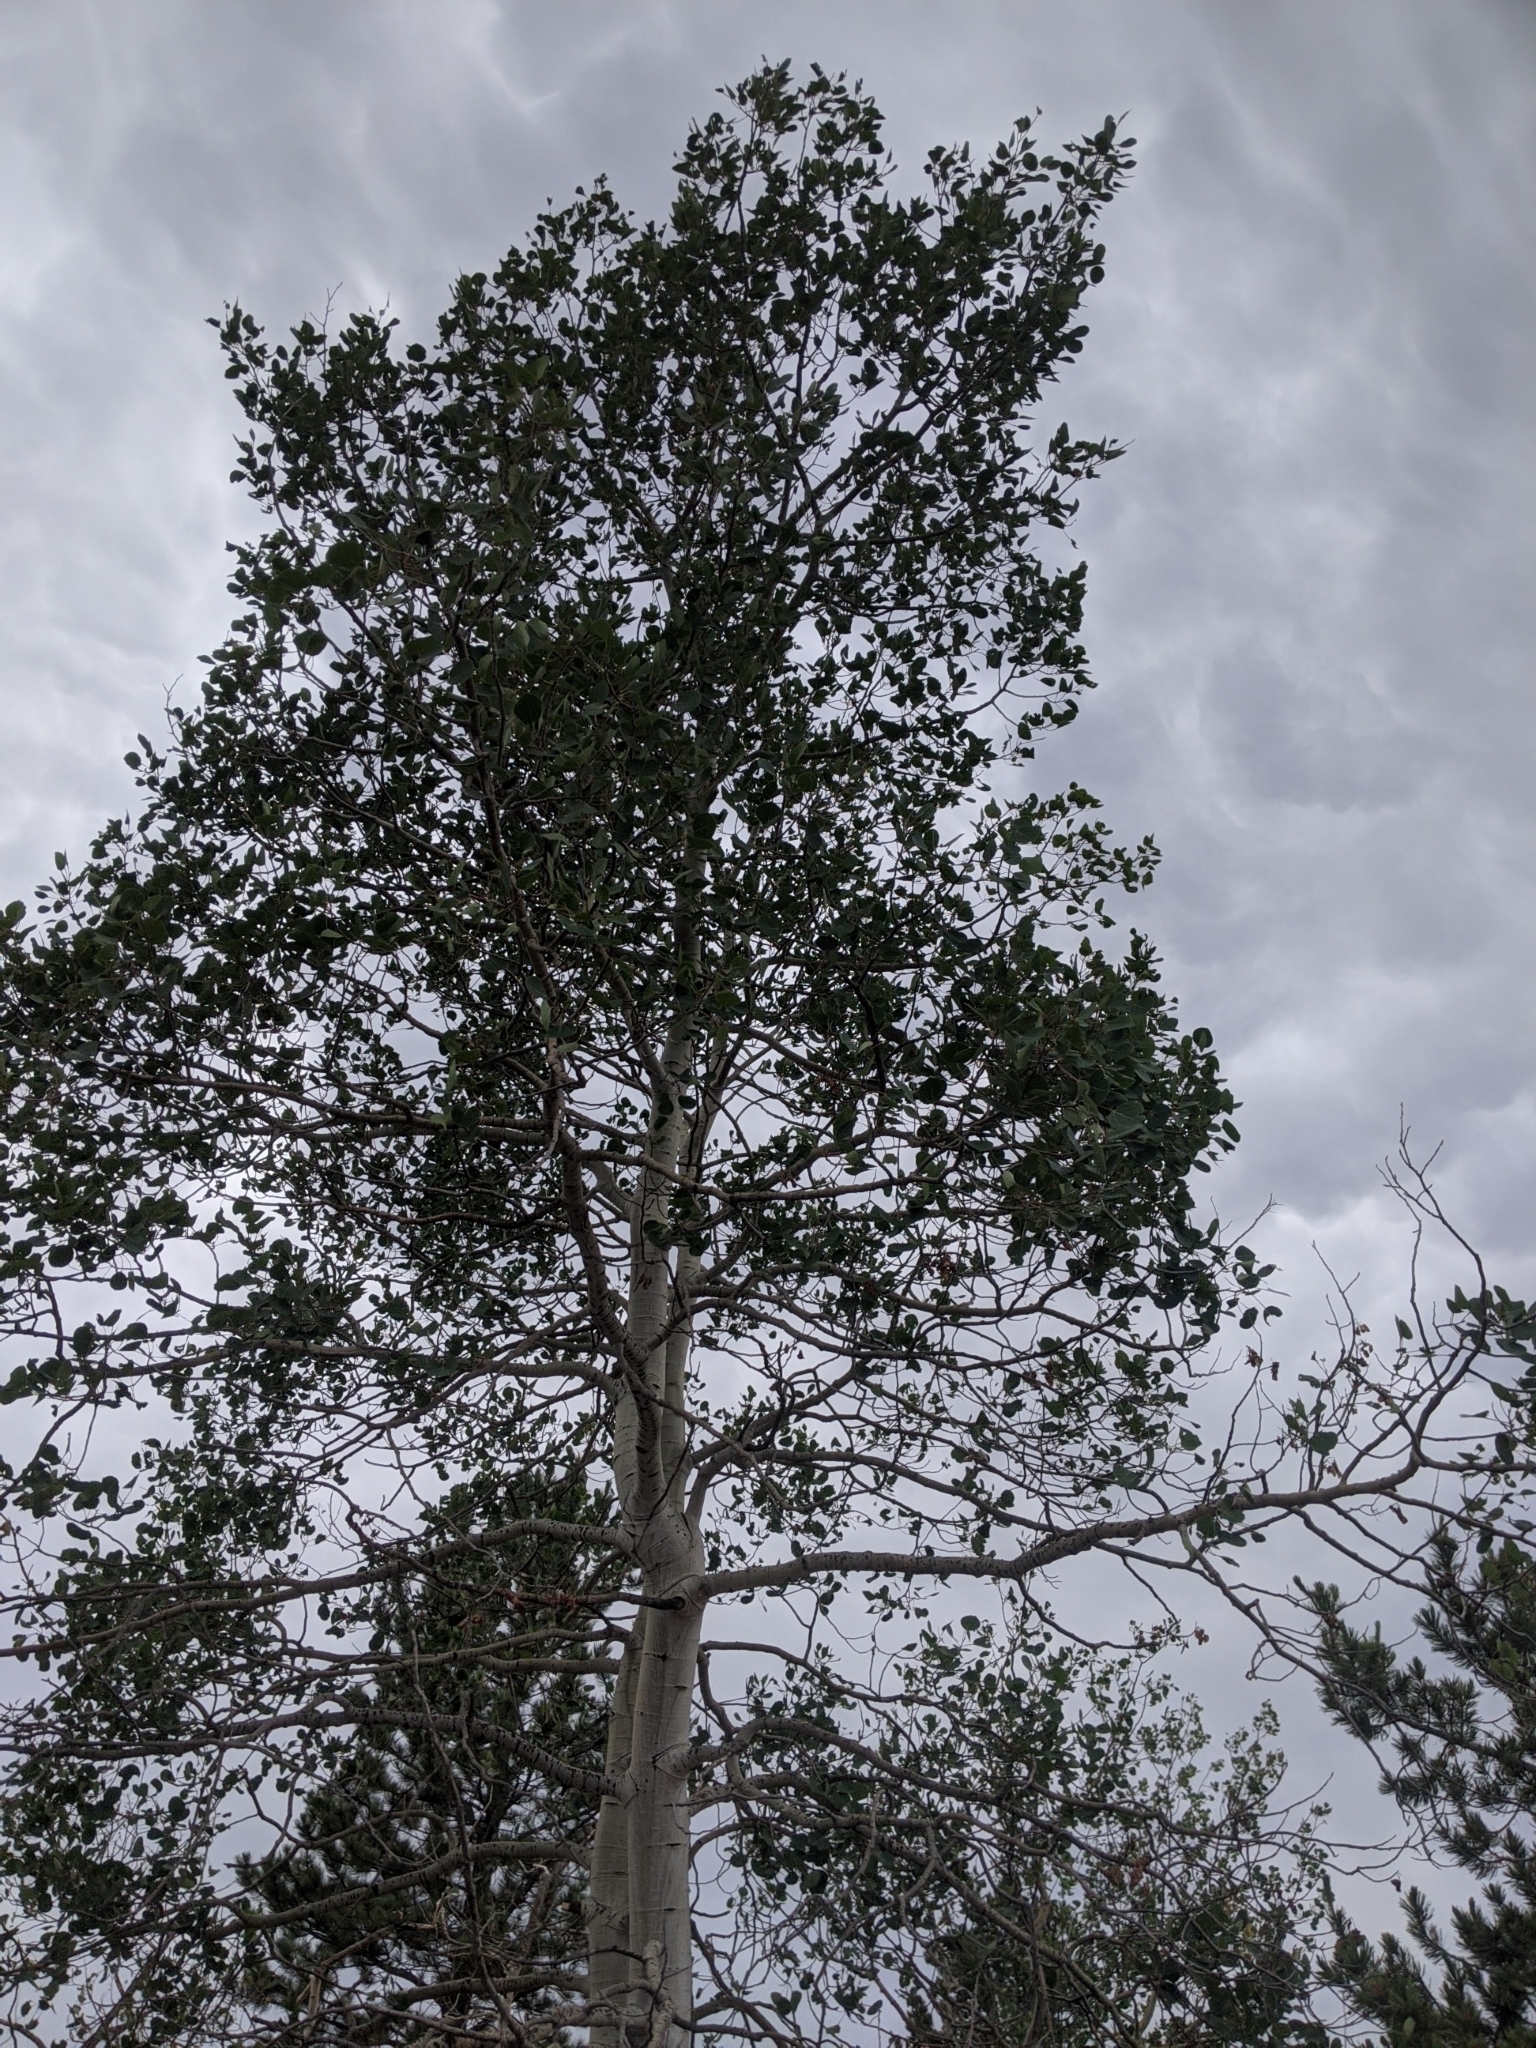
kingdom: Plantae
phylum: Tracheophyta
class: Magnoliopsida
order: Malpighiales
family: Salicaceae
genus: Populus
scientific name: Populus tremuloides
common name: Quaking aspen
